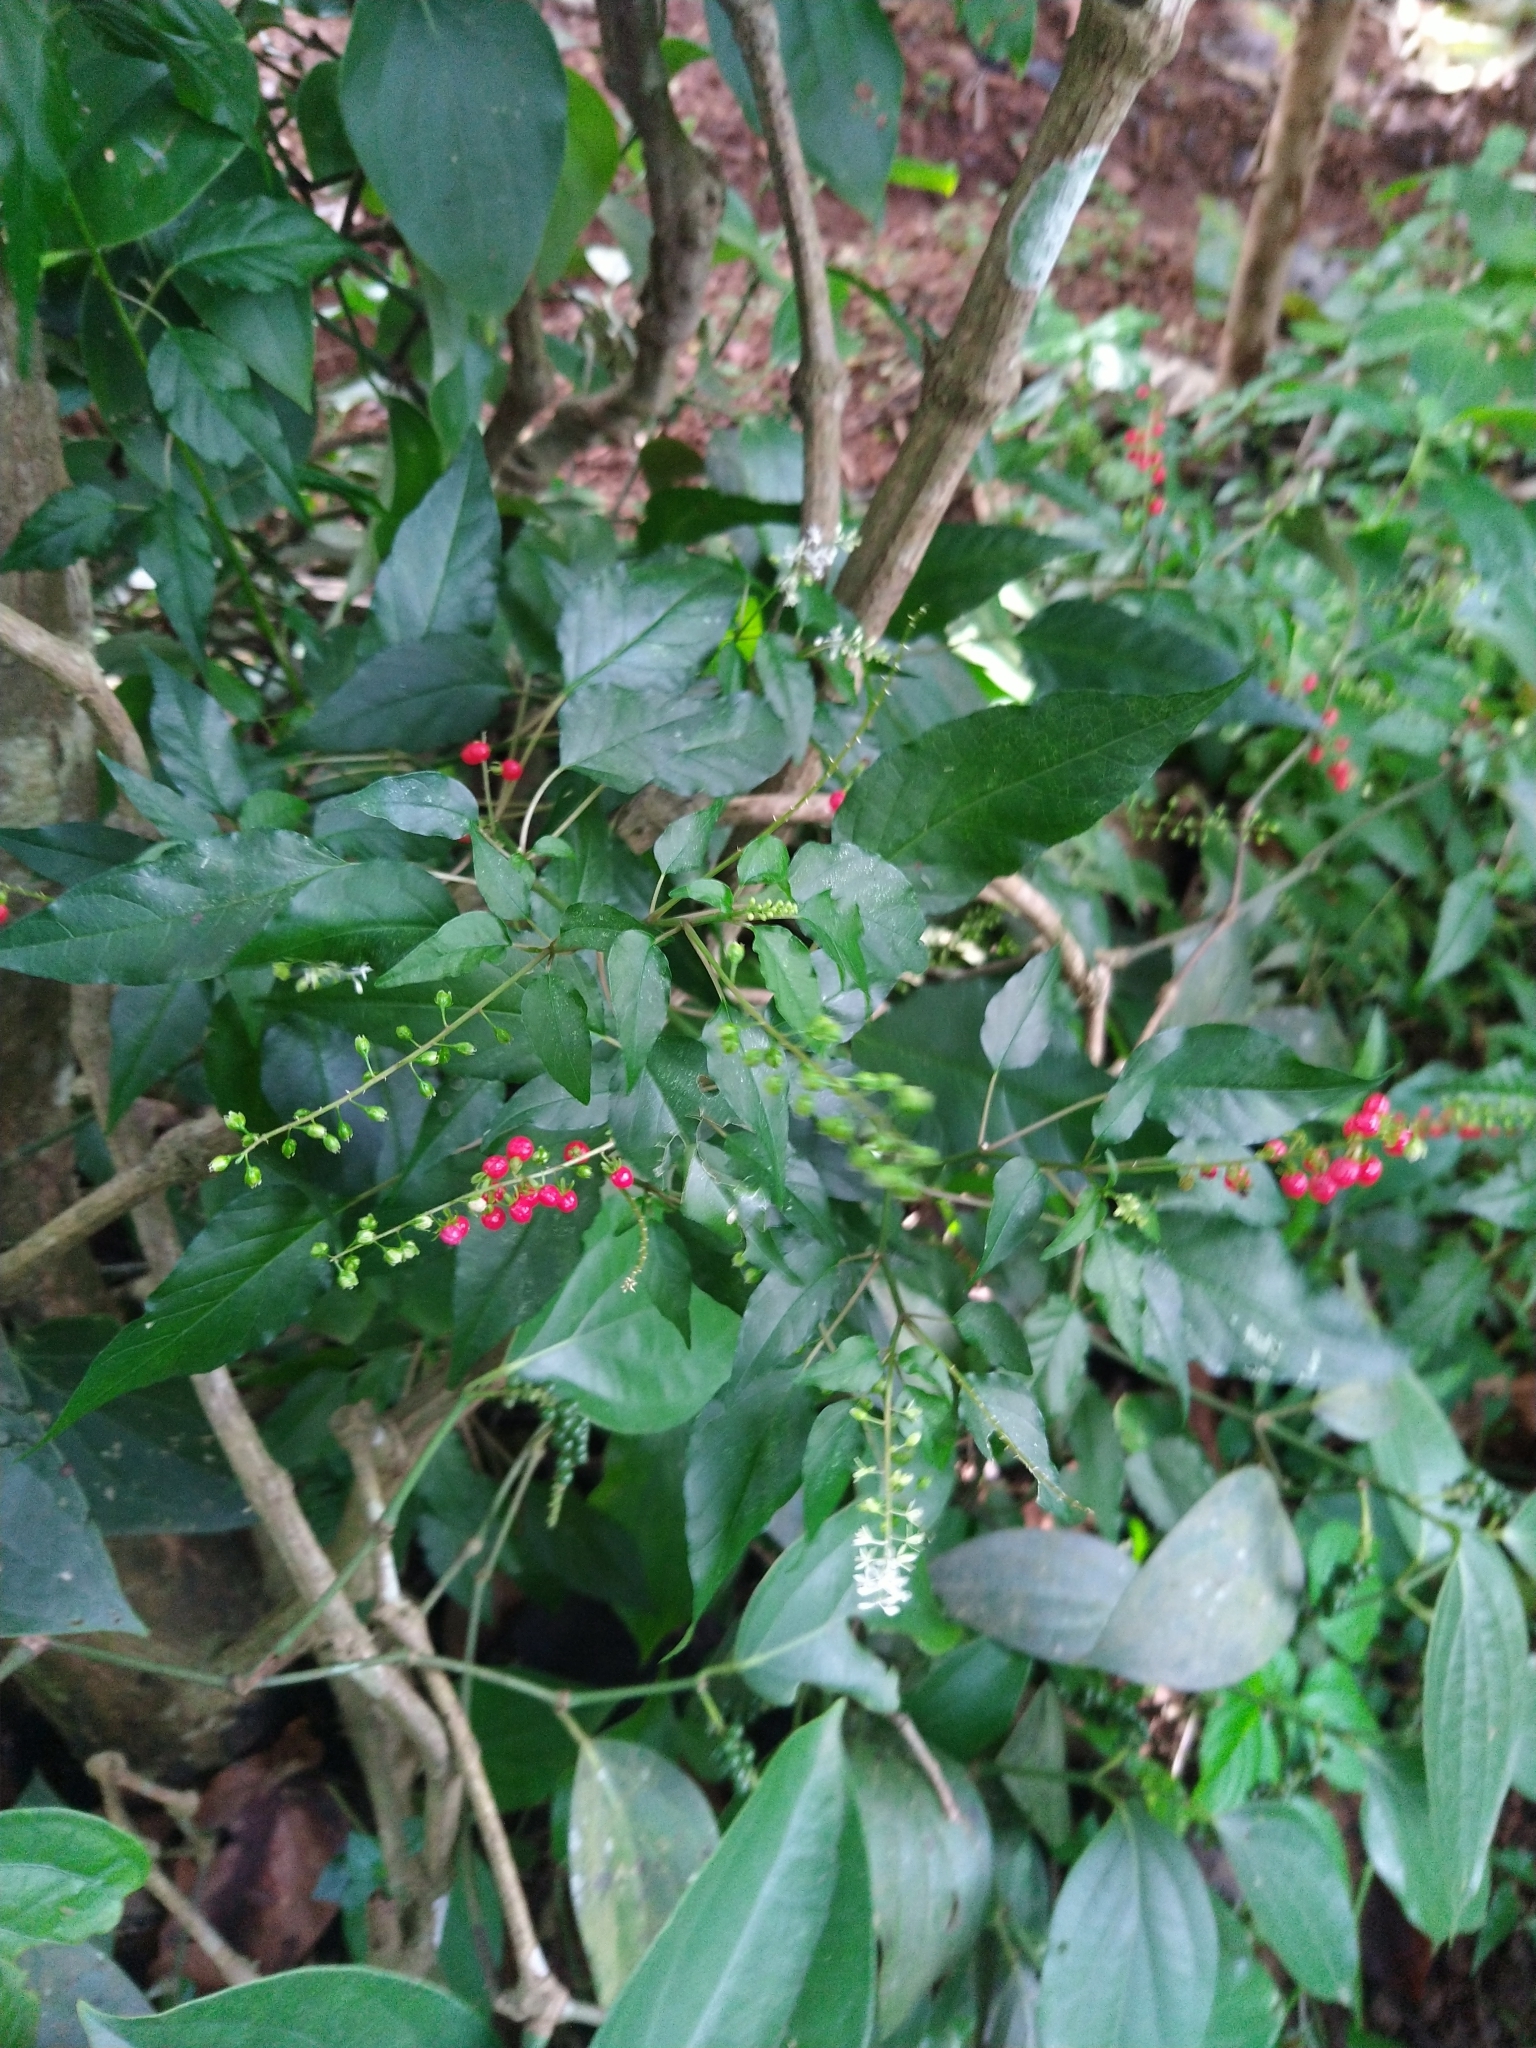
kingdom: Plantae
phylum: Tracheophyta
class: Magnoliopsida
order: Caryophyllales
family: Phytolaccaceae
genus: Rivina
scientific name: Rivina humilis
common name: Rougeplant
